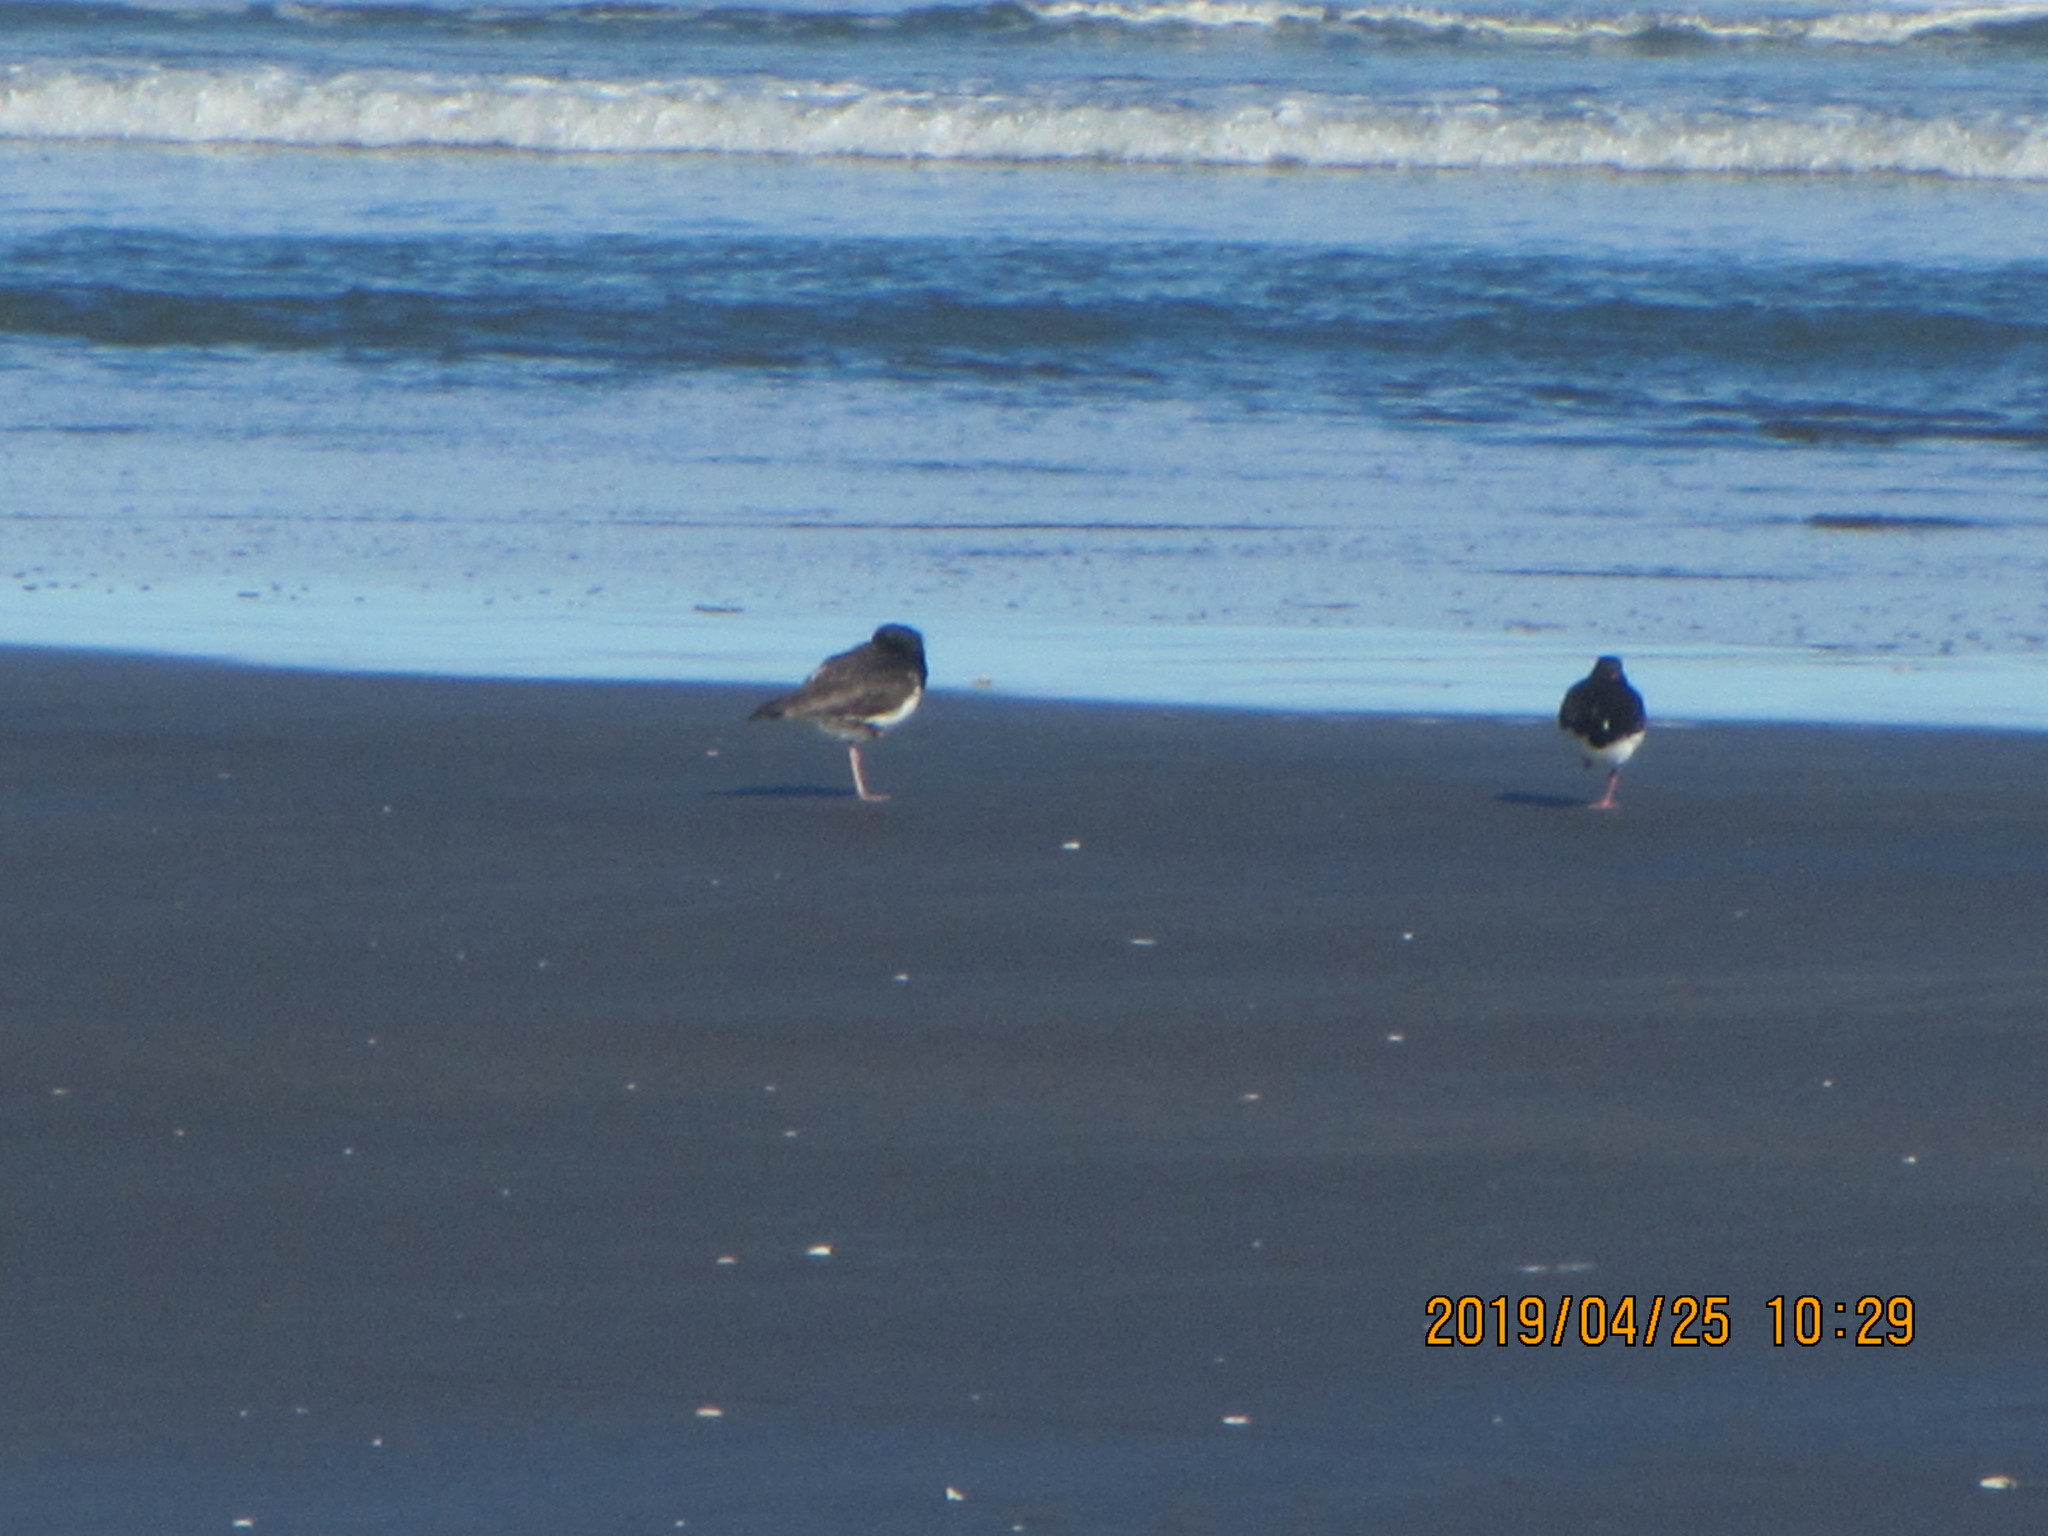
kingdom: Animalia
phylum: Chordata
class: Aves
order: Charadriiformes
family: Haematopodidae
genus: Haematopus
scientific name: Haematopus finschi
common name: South island oystercatcher
